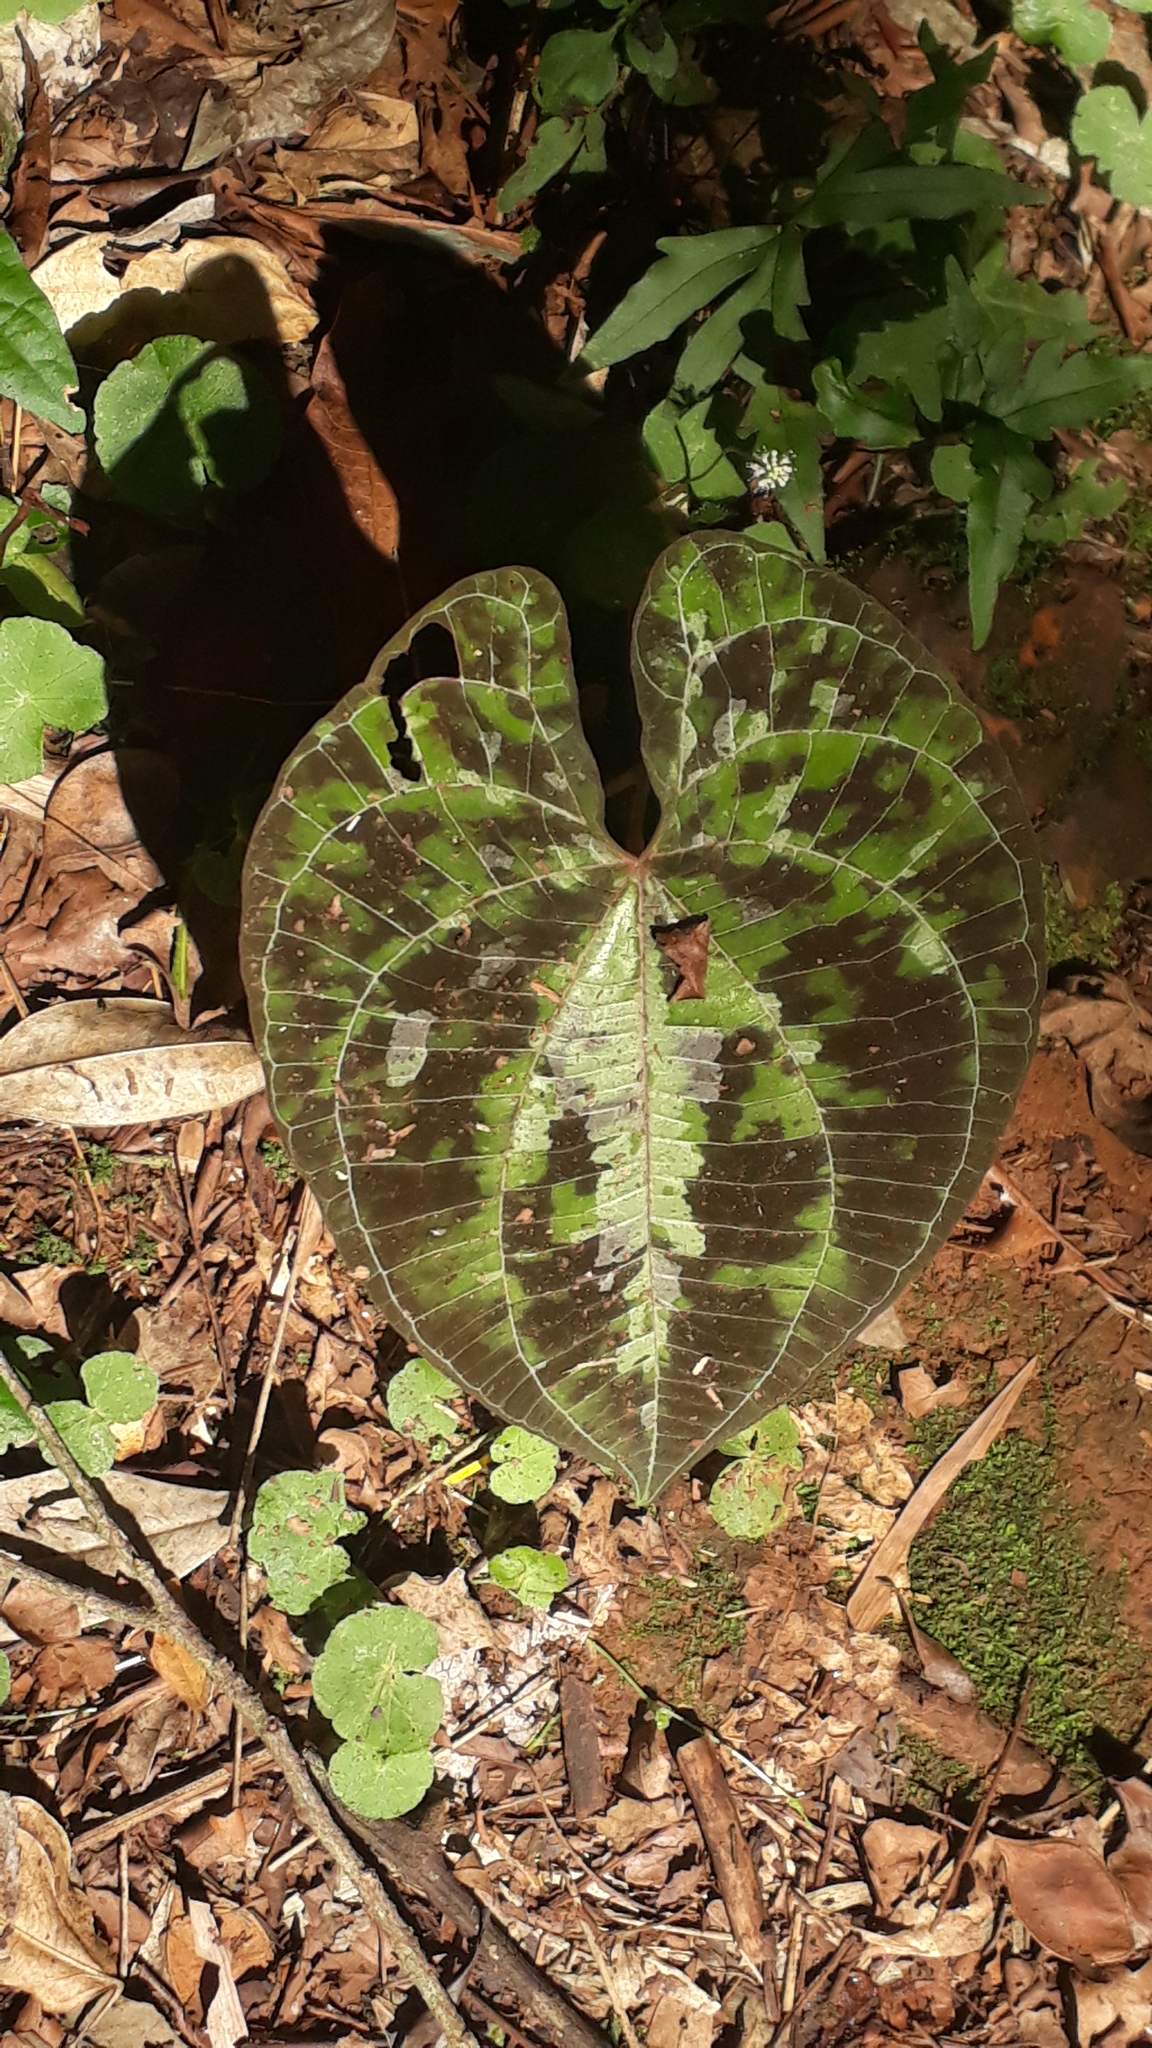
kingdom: Plantae
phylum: Tracheophyta
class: Liliopsida
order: Dioscoreales
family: Dioscoreaceae
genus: Dioscorea
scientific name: Dioscorea dodecaneura
